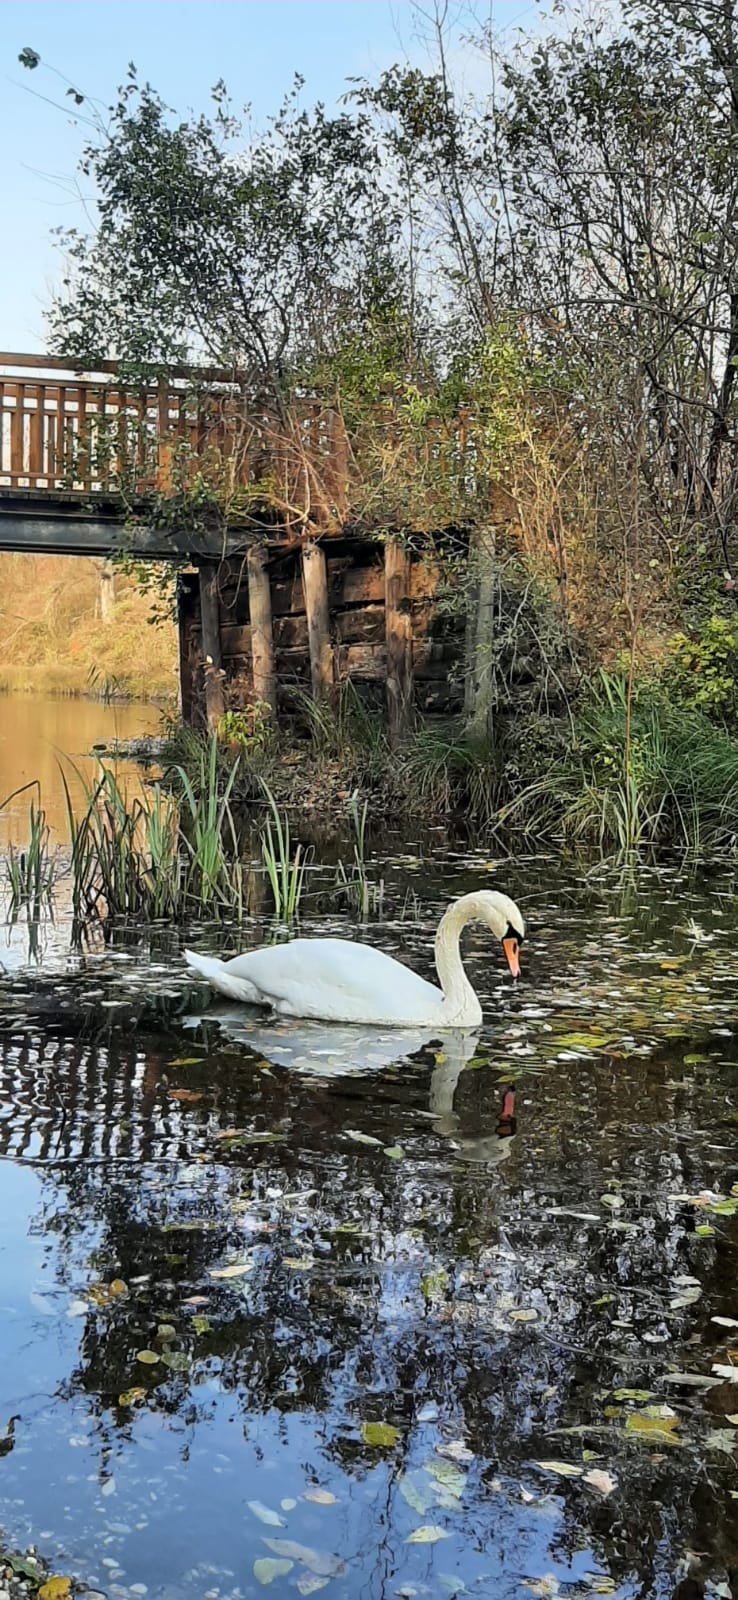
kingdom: Animalia
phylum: Chordata
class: Aves
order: Anseriformes
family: Anatidae
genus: Cygnus
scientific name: Cygnus olor
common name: Mute swan
